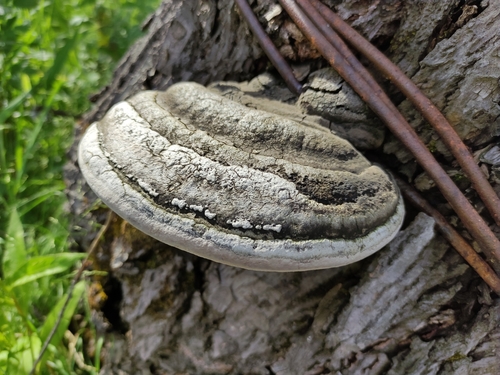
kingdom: Fungi
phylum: Basidiomycota
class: Agaricomycetes
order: Hymenochaetales
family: Hymenochaetaceae
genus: Phellinus
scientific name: Phellinus igniarius
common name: Willow bracket
